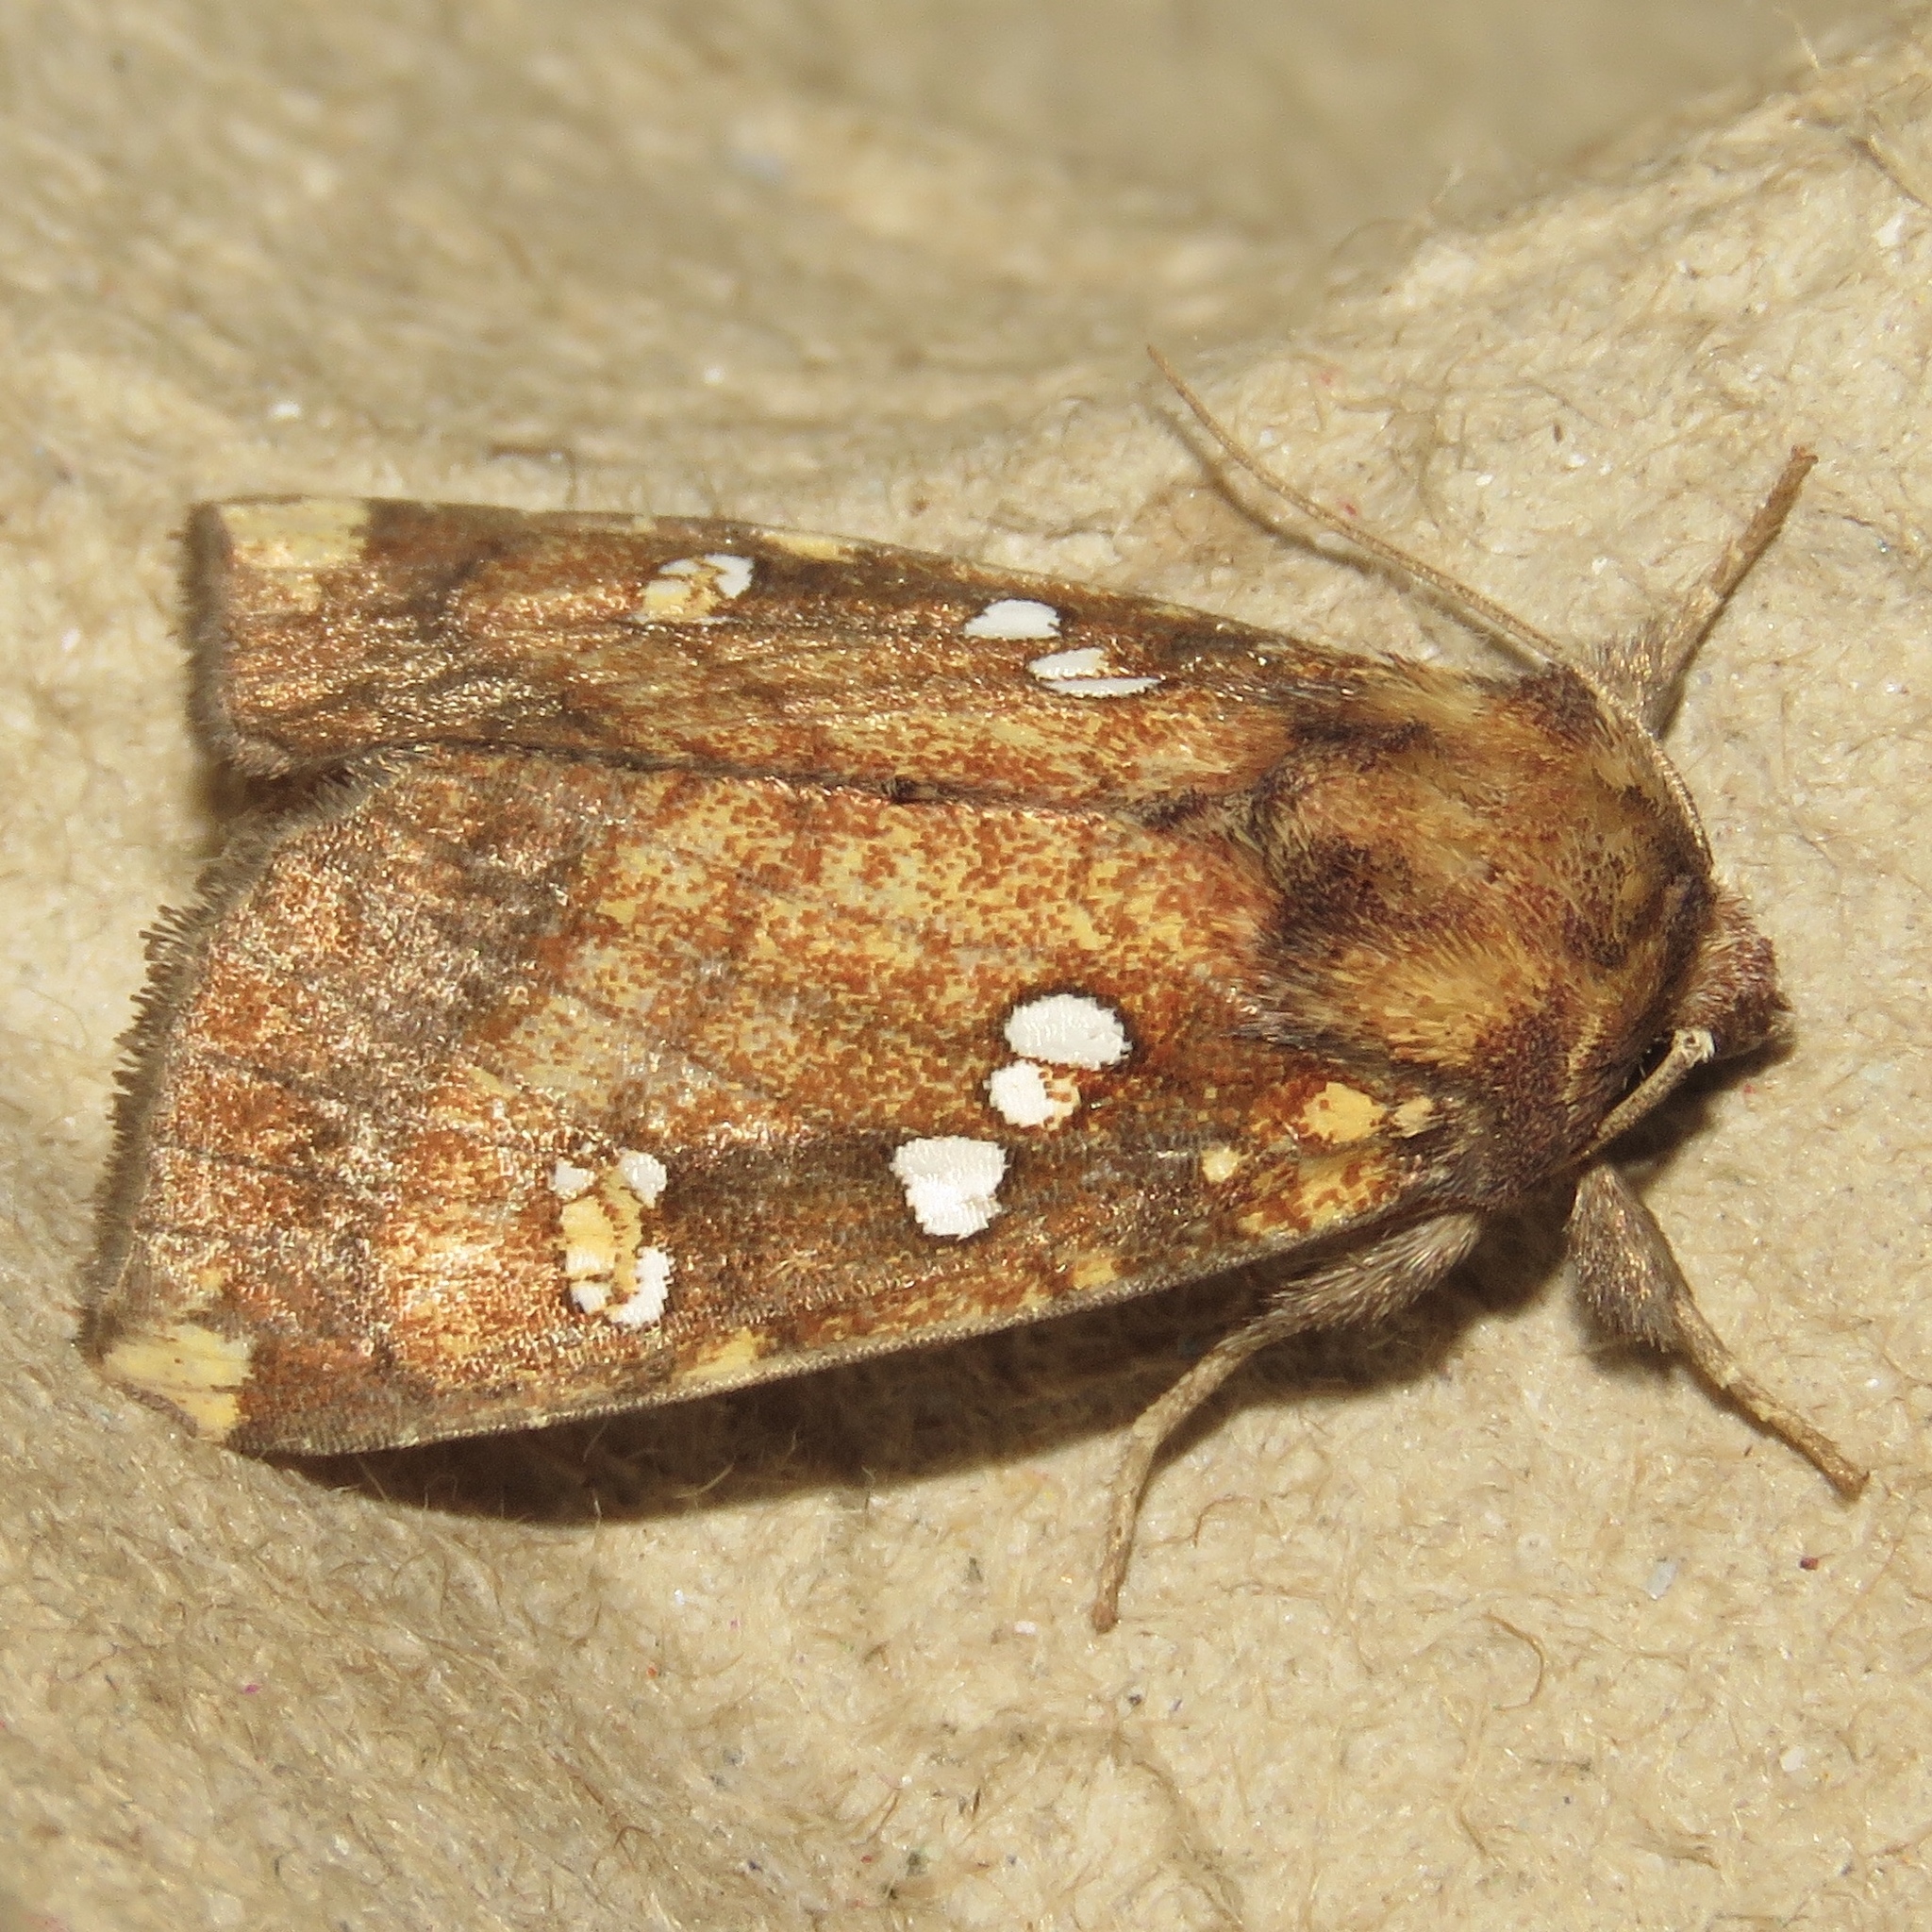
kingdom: Animalia
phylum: Arthropoda
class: Insecta
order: Lepidoptera
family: Noctuidae
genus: Papaipema
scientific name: Papaipema arctivorens
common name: Northern burdock borer moth
